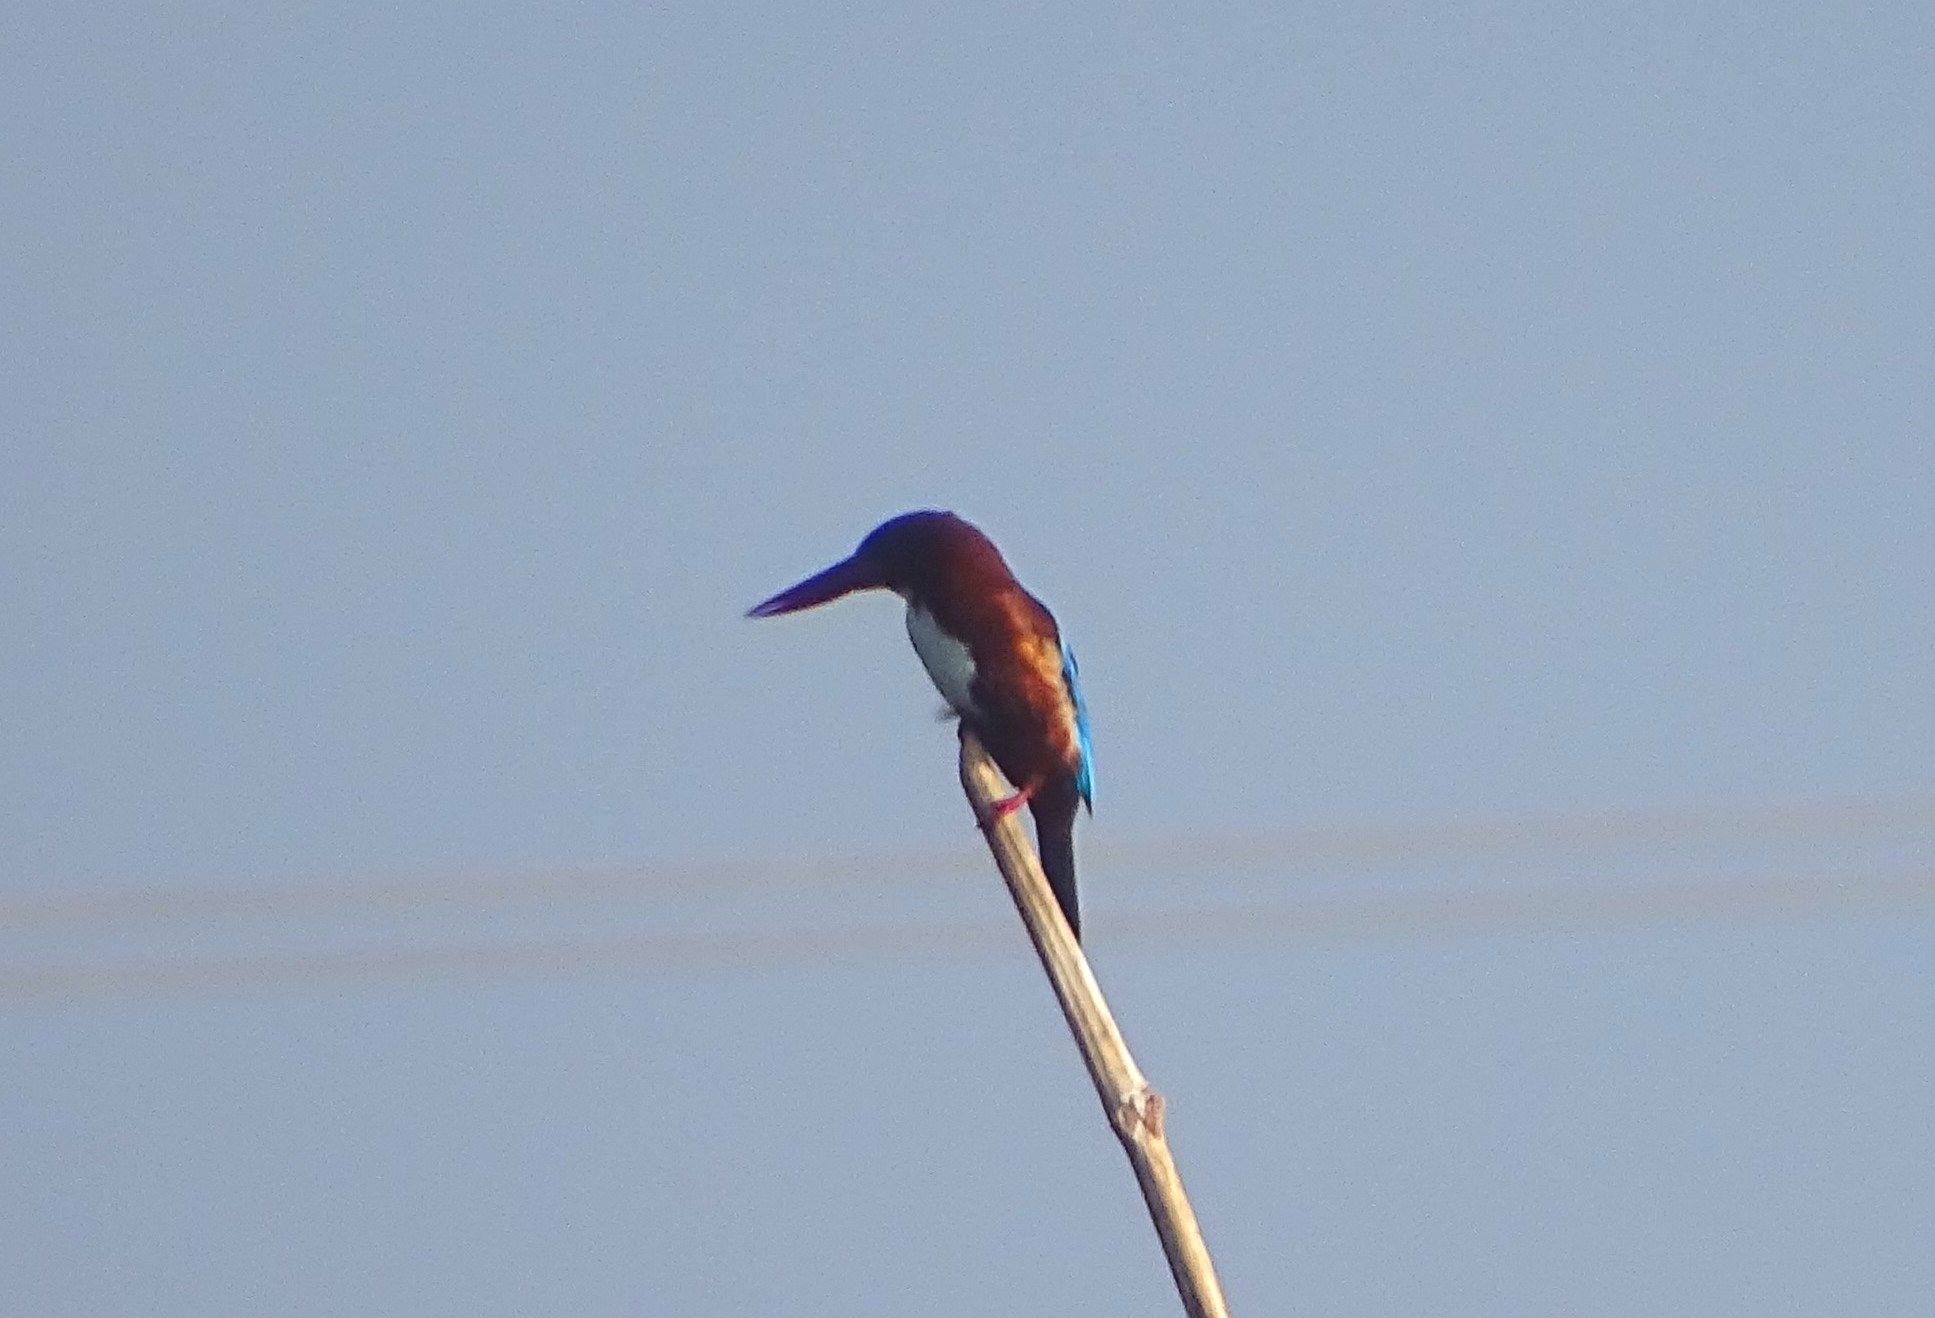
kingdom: Animalia
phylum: Chordata
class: Aves
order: Coraciiformes
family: Alcedinidae
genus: Halcyon
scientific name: Halcyon smyrnensis
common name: White-throated kingfisher
